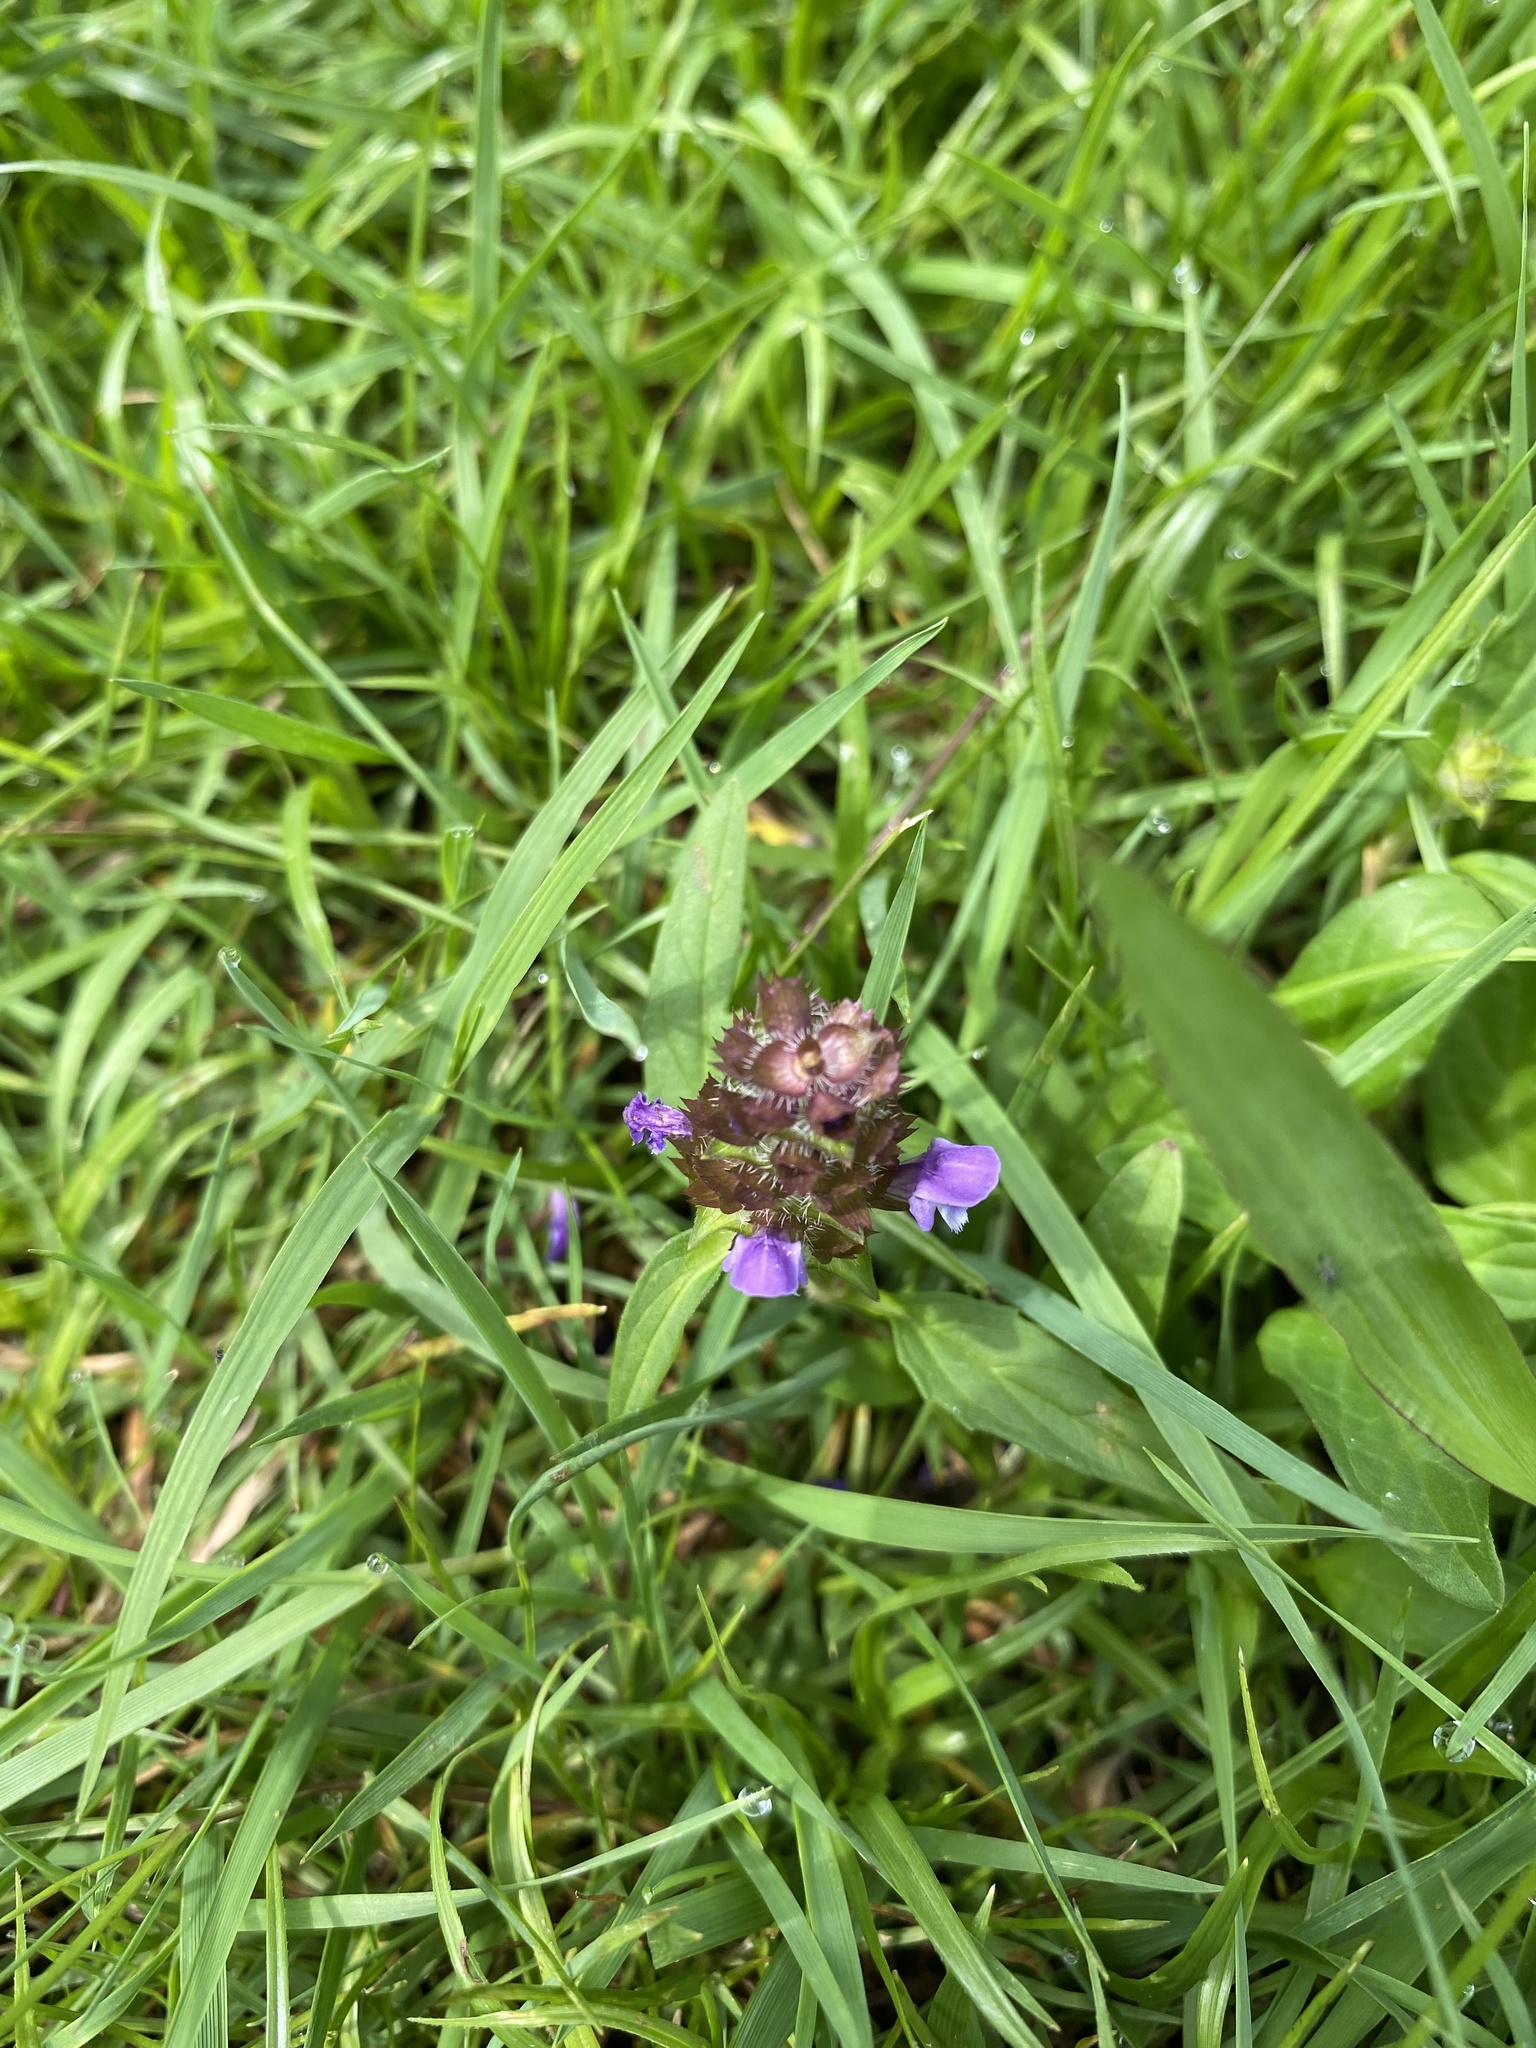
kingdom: Plantae
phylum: Tracheophyta
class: Magnoliopsida
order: Lamiales
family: Lamiaceae
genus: Prunella
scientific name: Prunella vulgaris
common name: Heal-all
